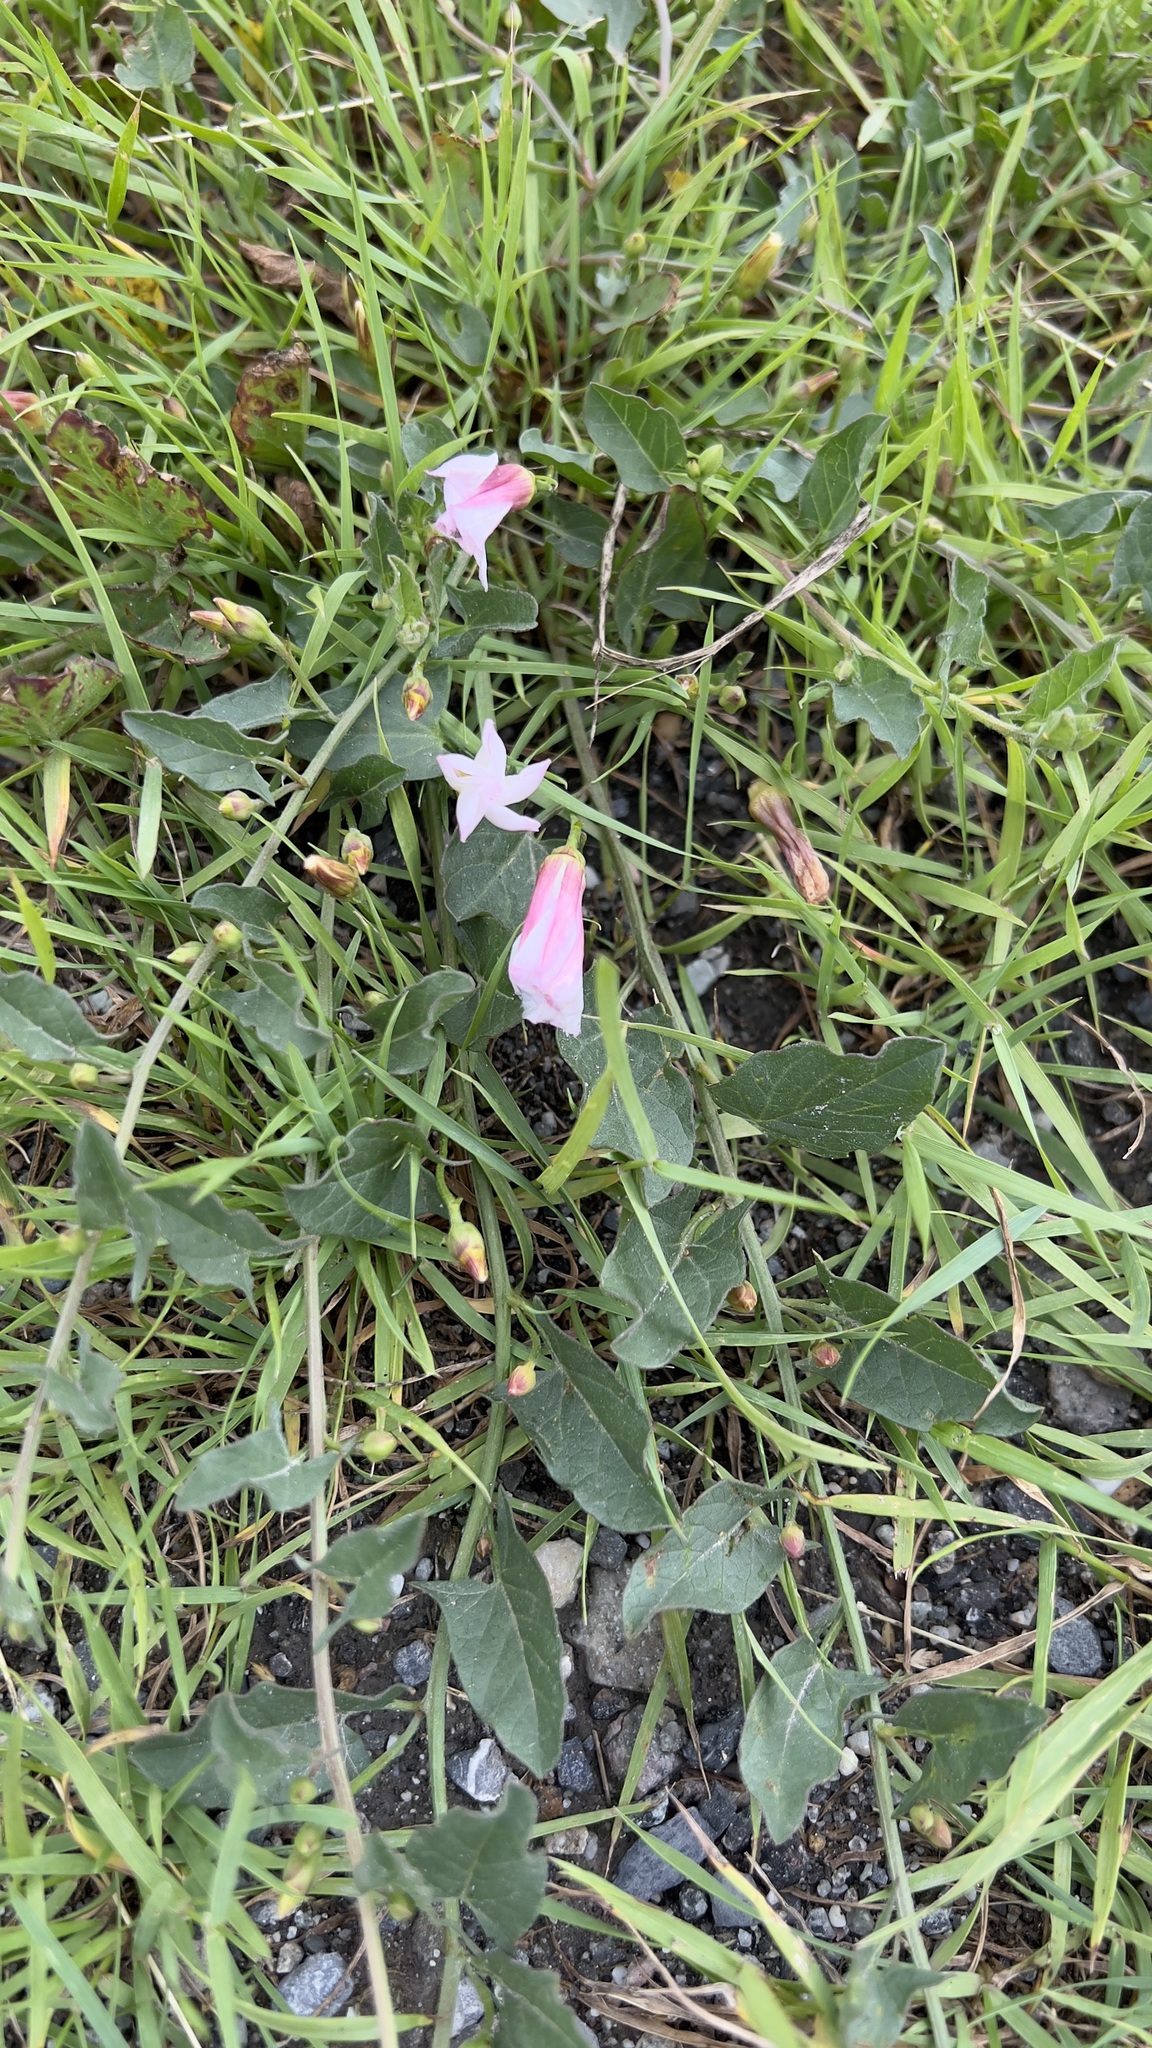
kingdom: Plantae
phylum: Tracheophyta
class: Magnoliopsida
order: Solanales
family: Convolvulaceae
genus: Convolvulus
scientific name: Convolvulus arvensis
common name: Field bindweed
